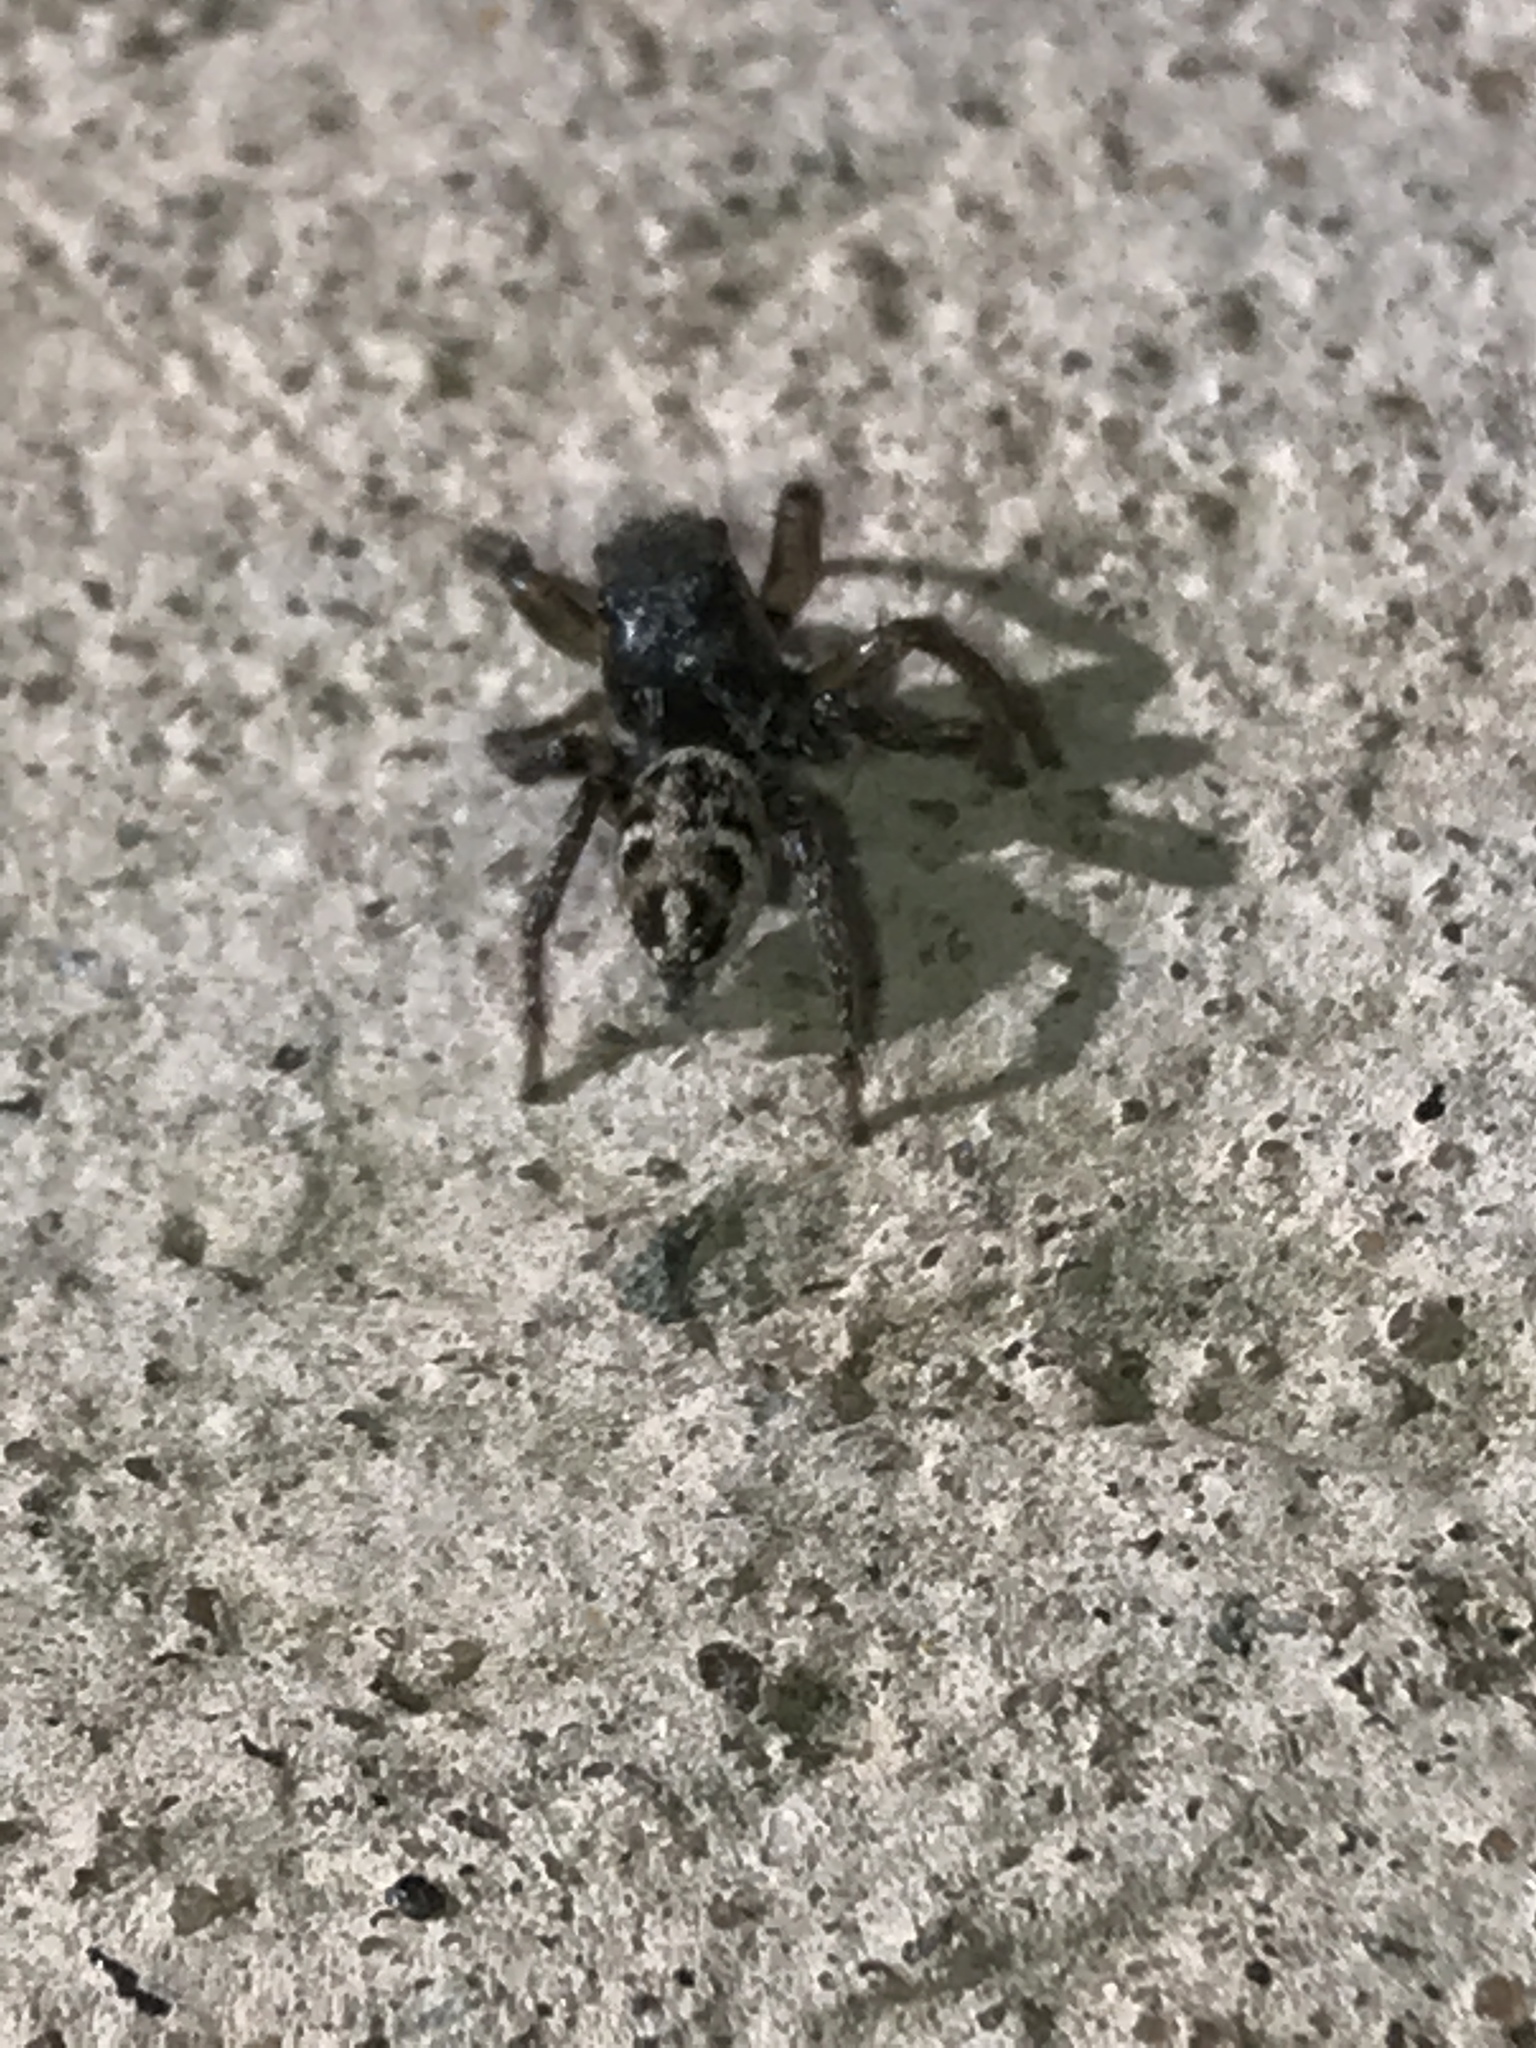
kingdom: Animalia
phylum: Arthropoda
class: Arachnida
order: Araneae
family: Salticidae
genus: Habronattus
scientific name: Habronattus borealis
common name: Boreal paradise spider
